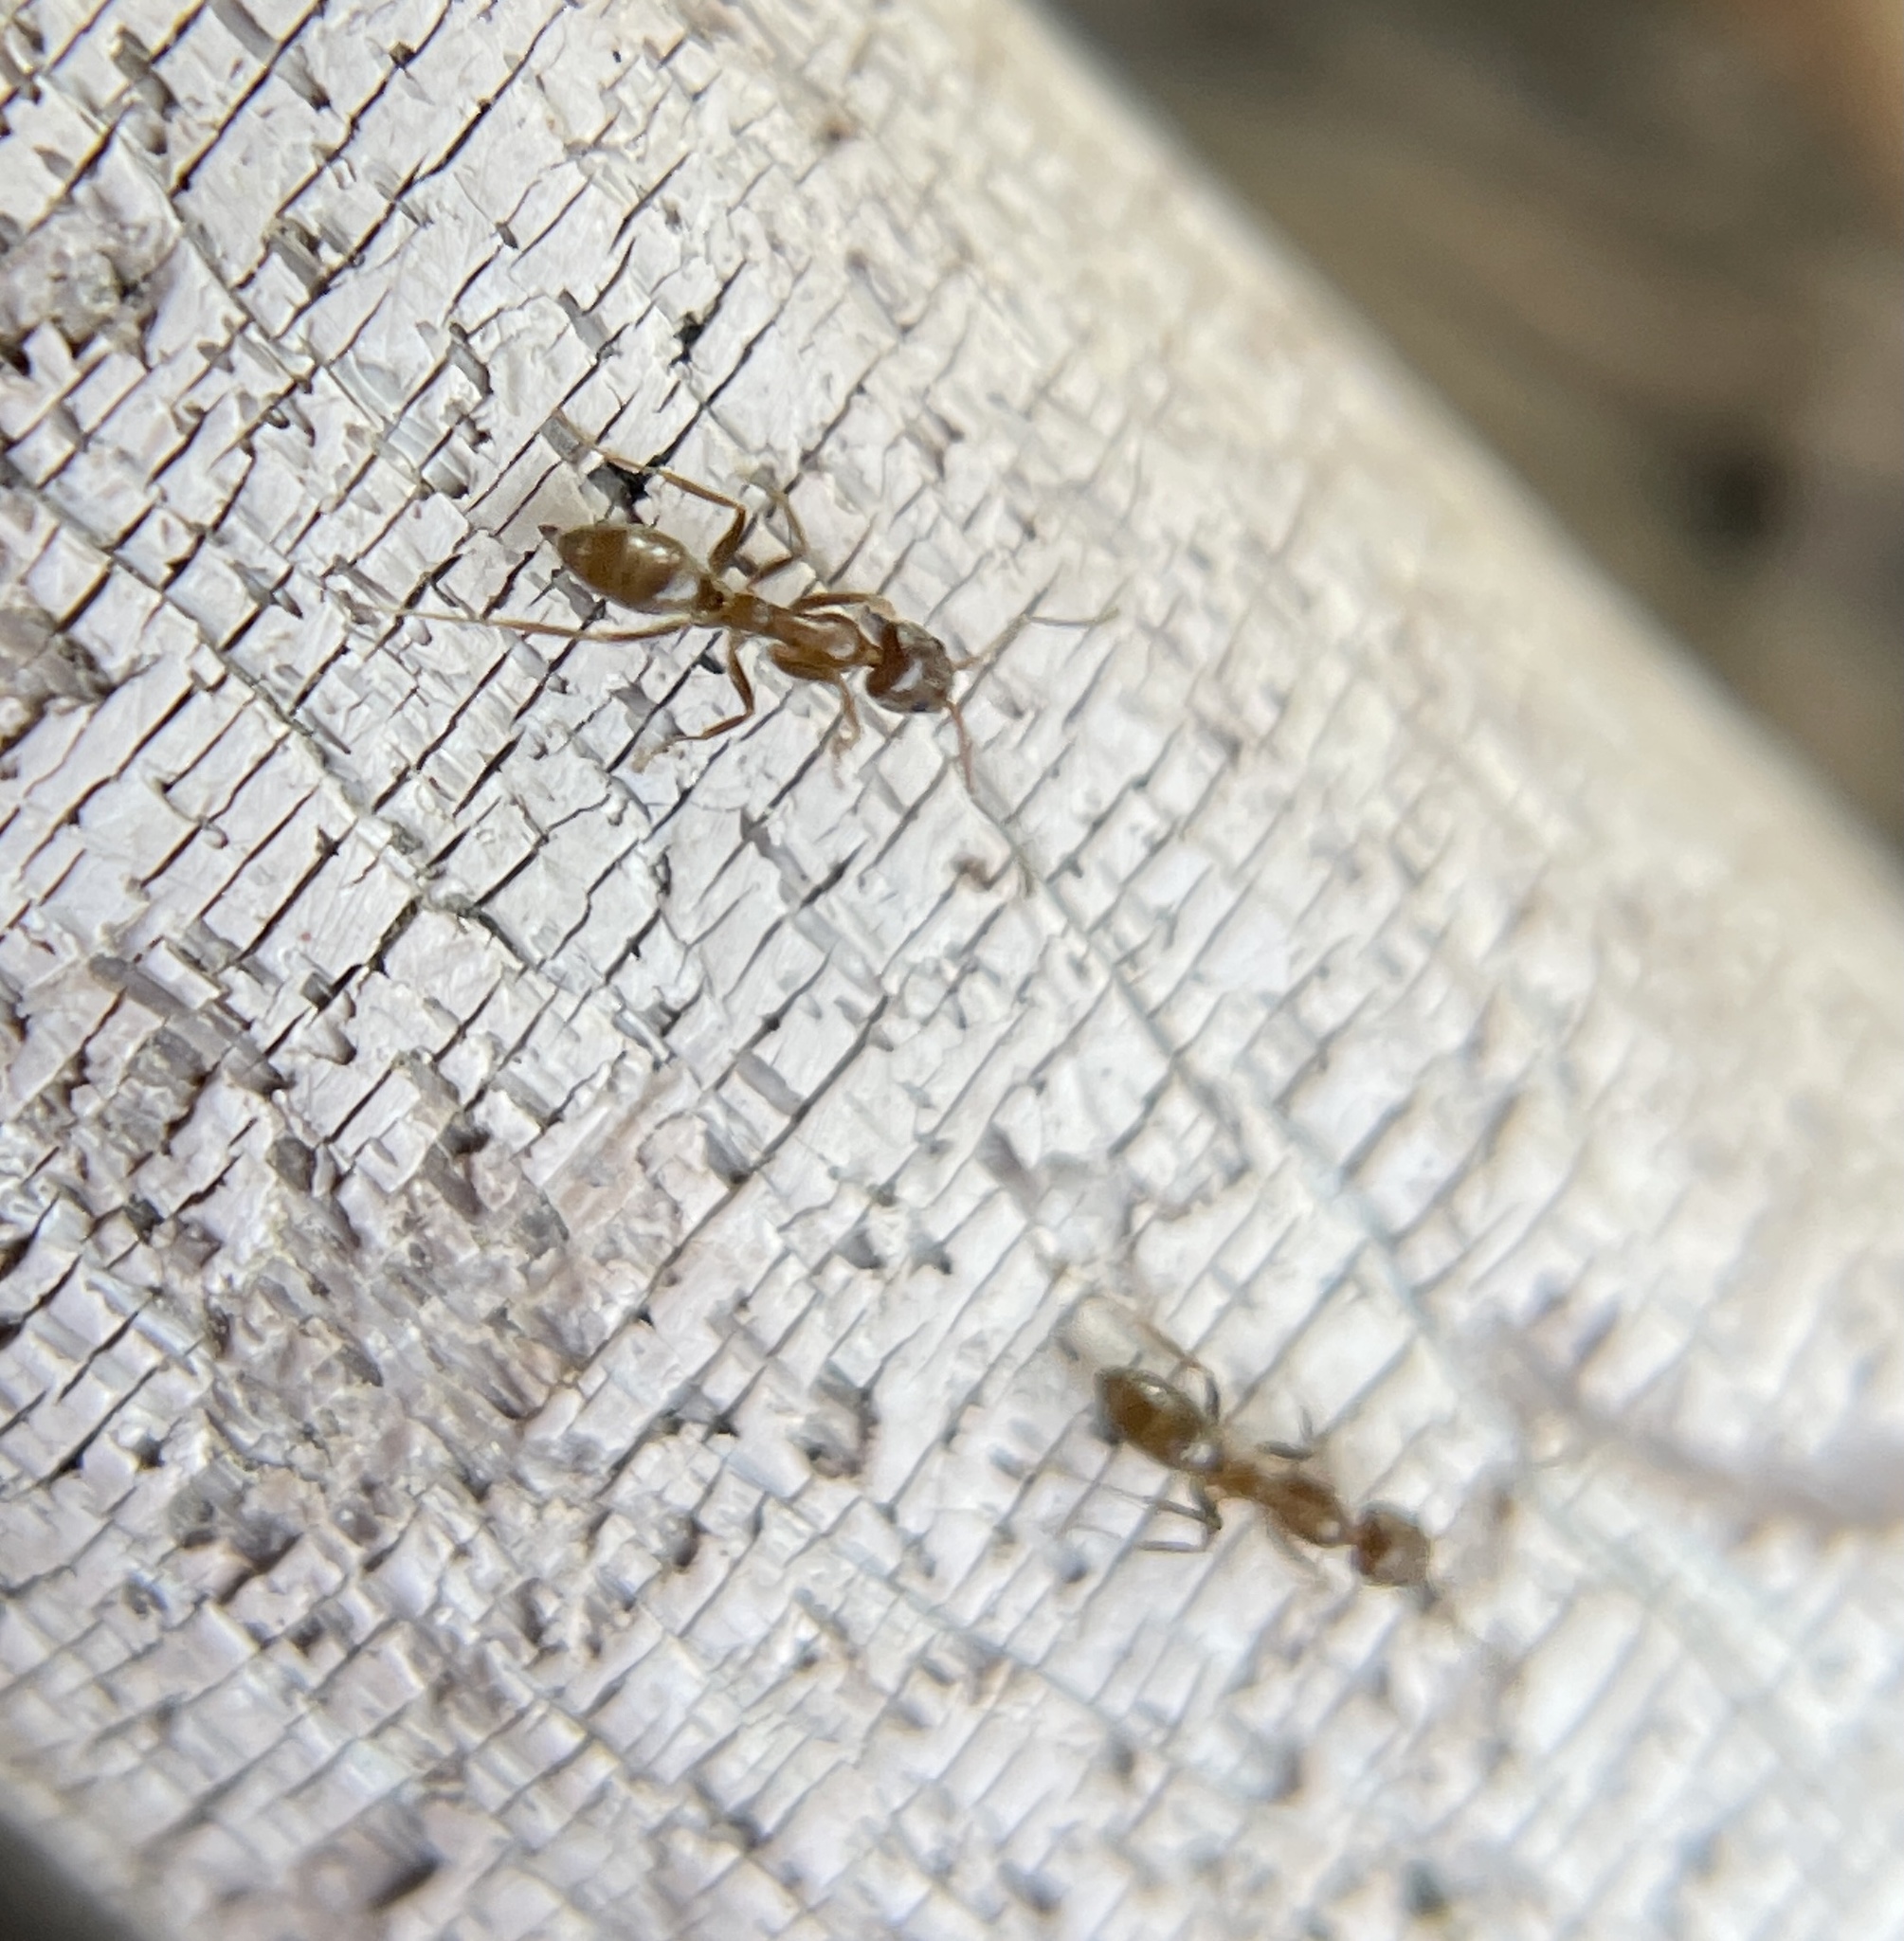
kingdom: Animalia
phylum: Arthropoda
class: Insecta
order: Hymenoptera
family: Formicidae
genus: Linepithema
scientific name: Linepithema humile
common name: Argentine ant
